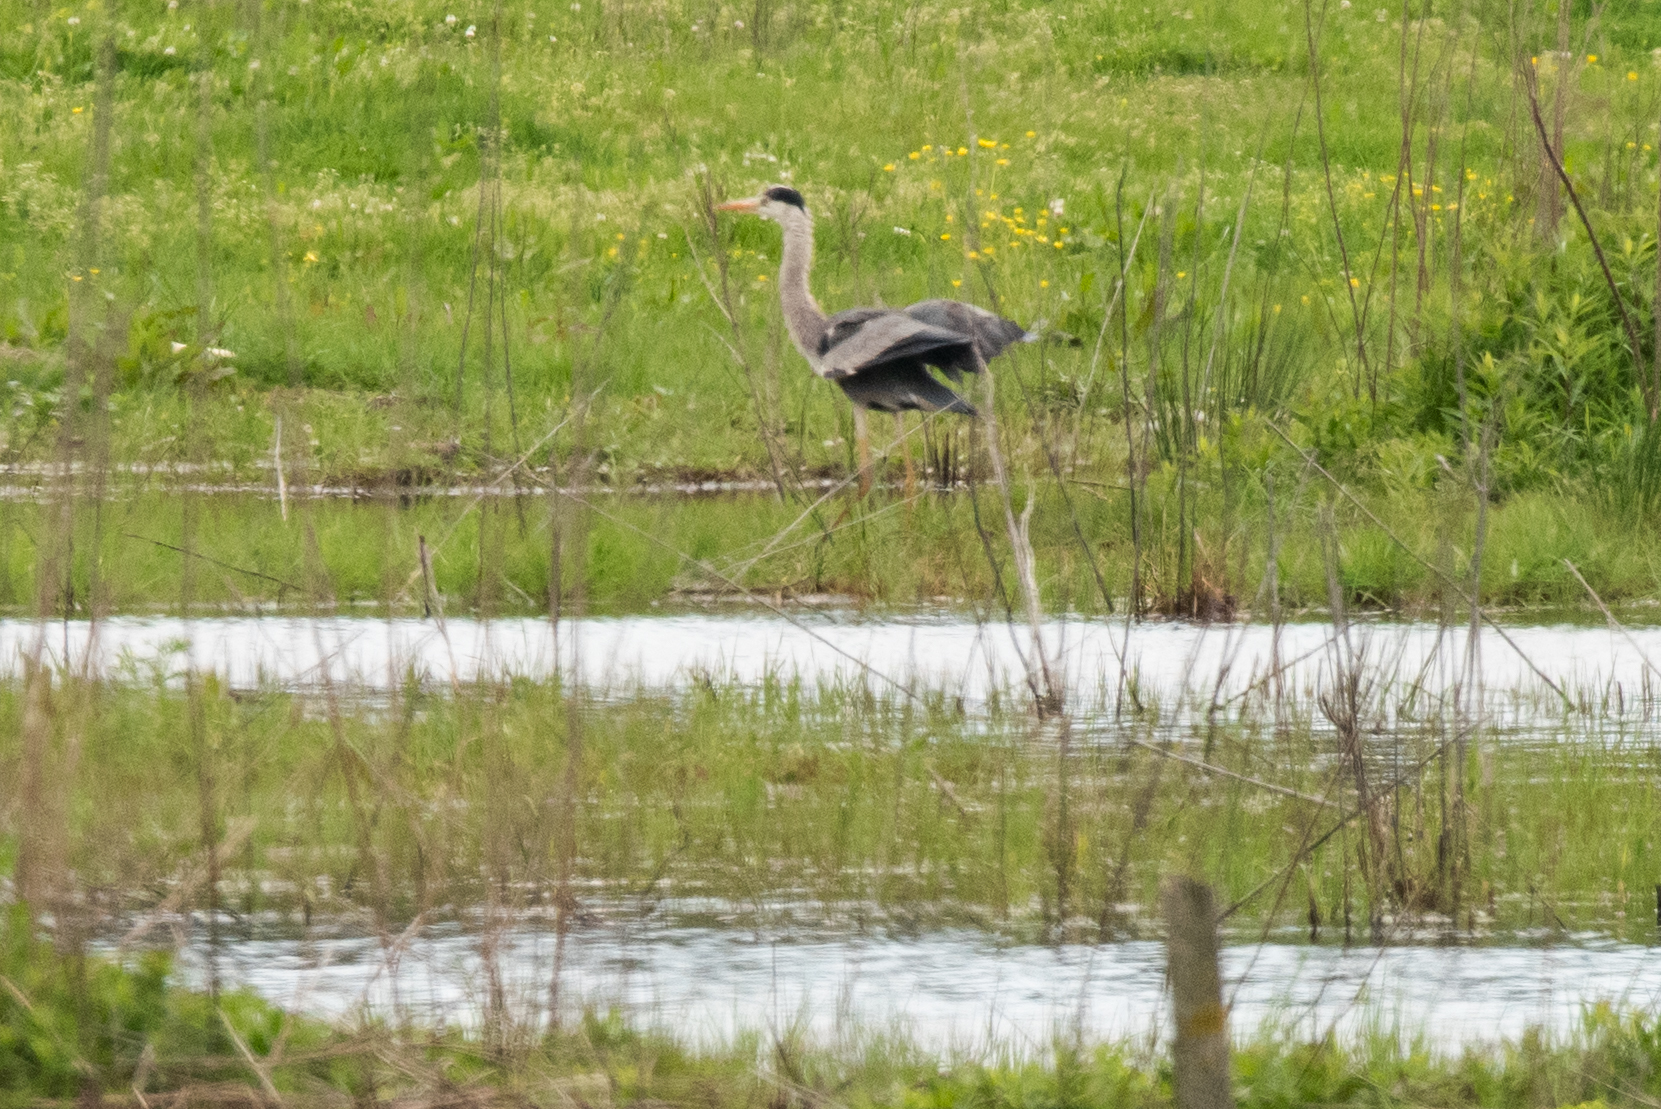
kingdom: Animalia
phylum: Chordata
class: Aves
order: Pelecaniformes
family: Ardeidae
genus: Ardea
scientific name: Ardea cinerea
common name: Grey heron
